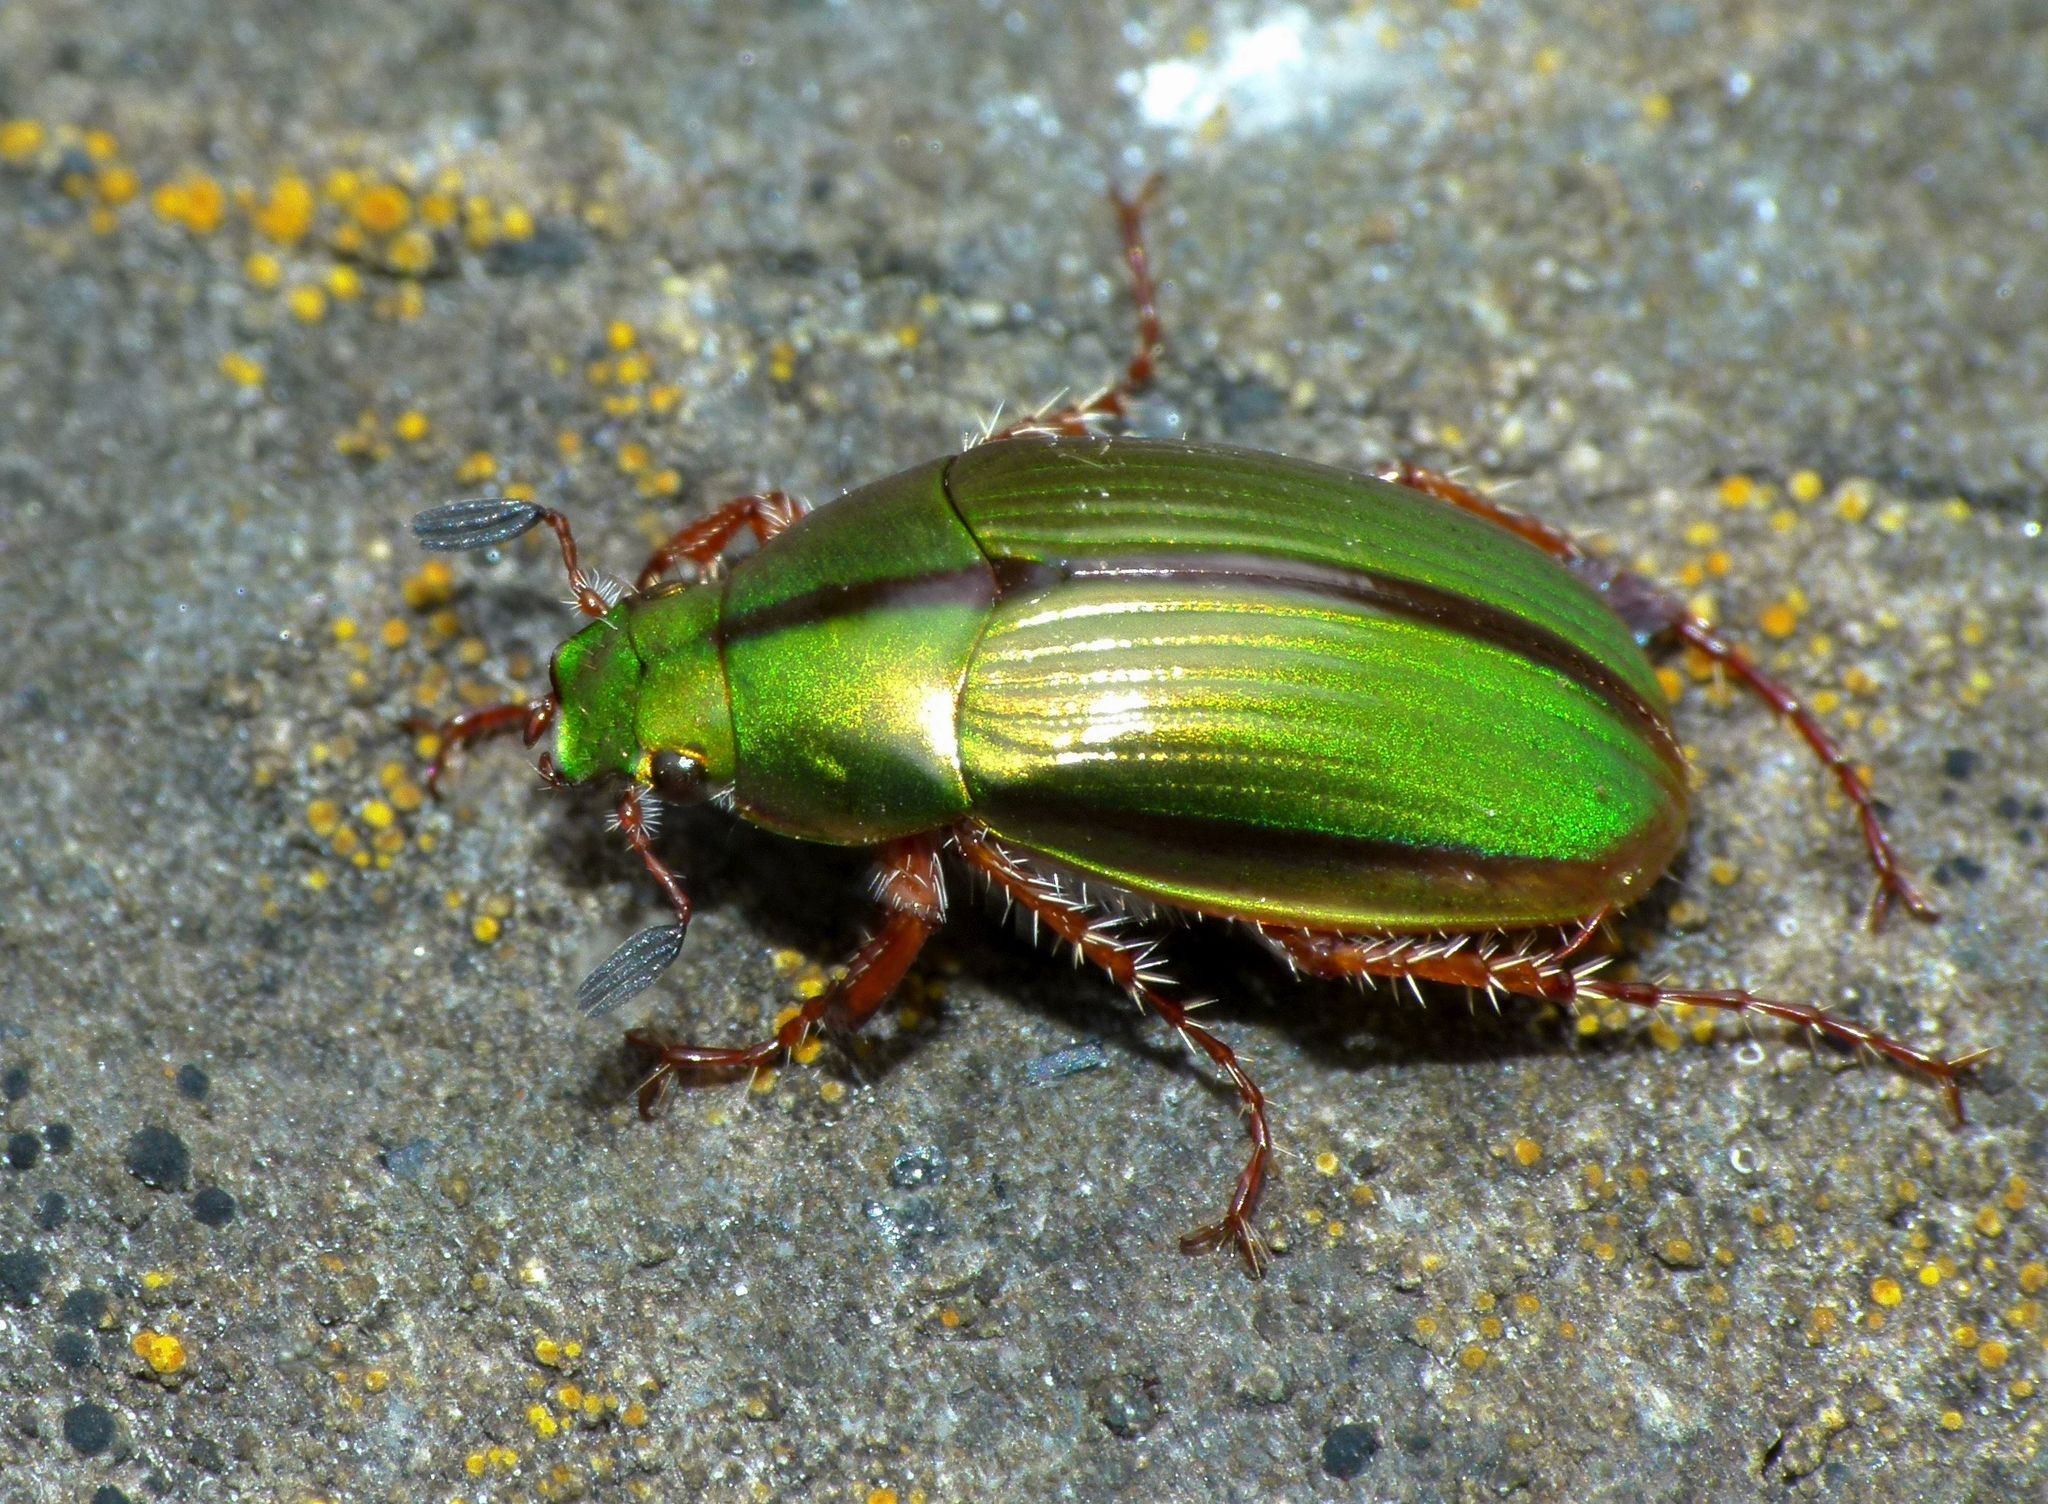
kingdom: Animalia
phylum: Arthropoda
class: Insecta
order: Coleoptera
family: Scarabaeidae
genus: Pyronota
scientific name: Pyronota festiva
